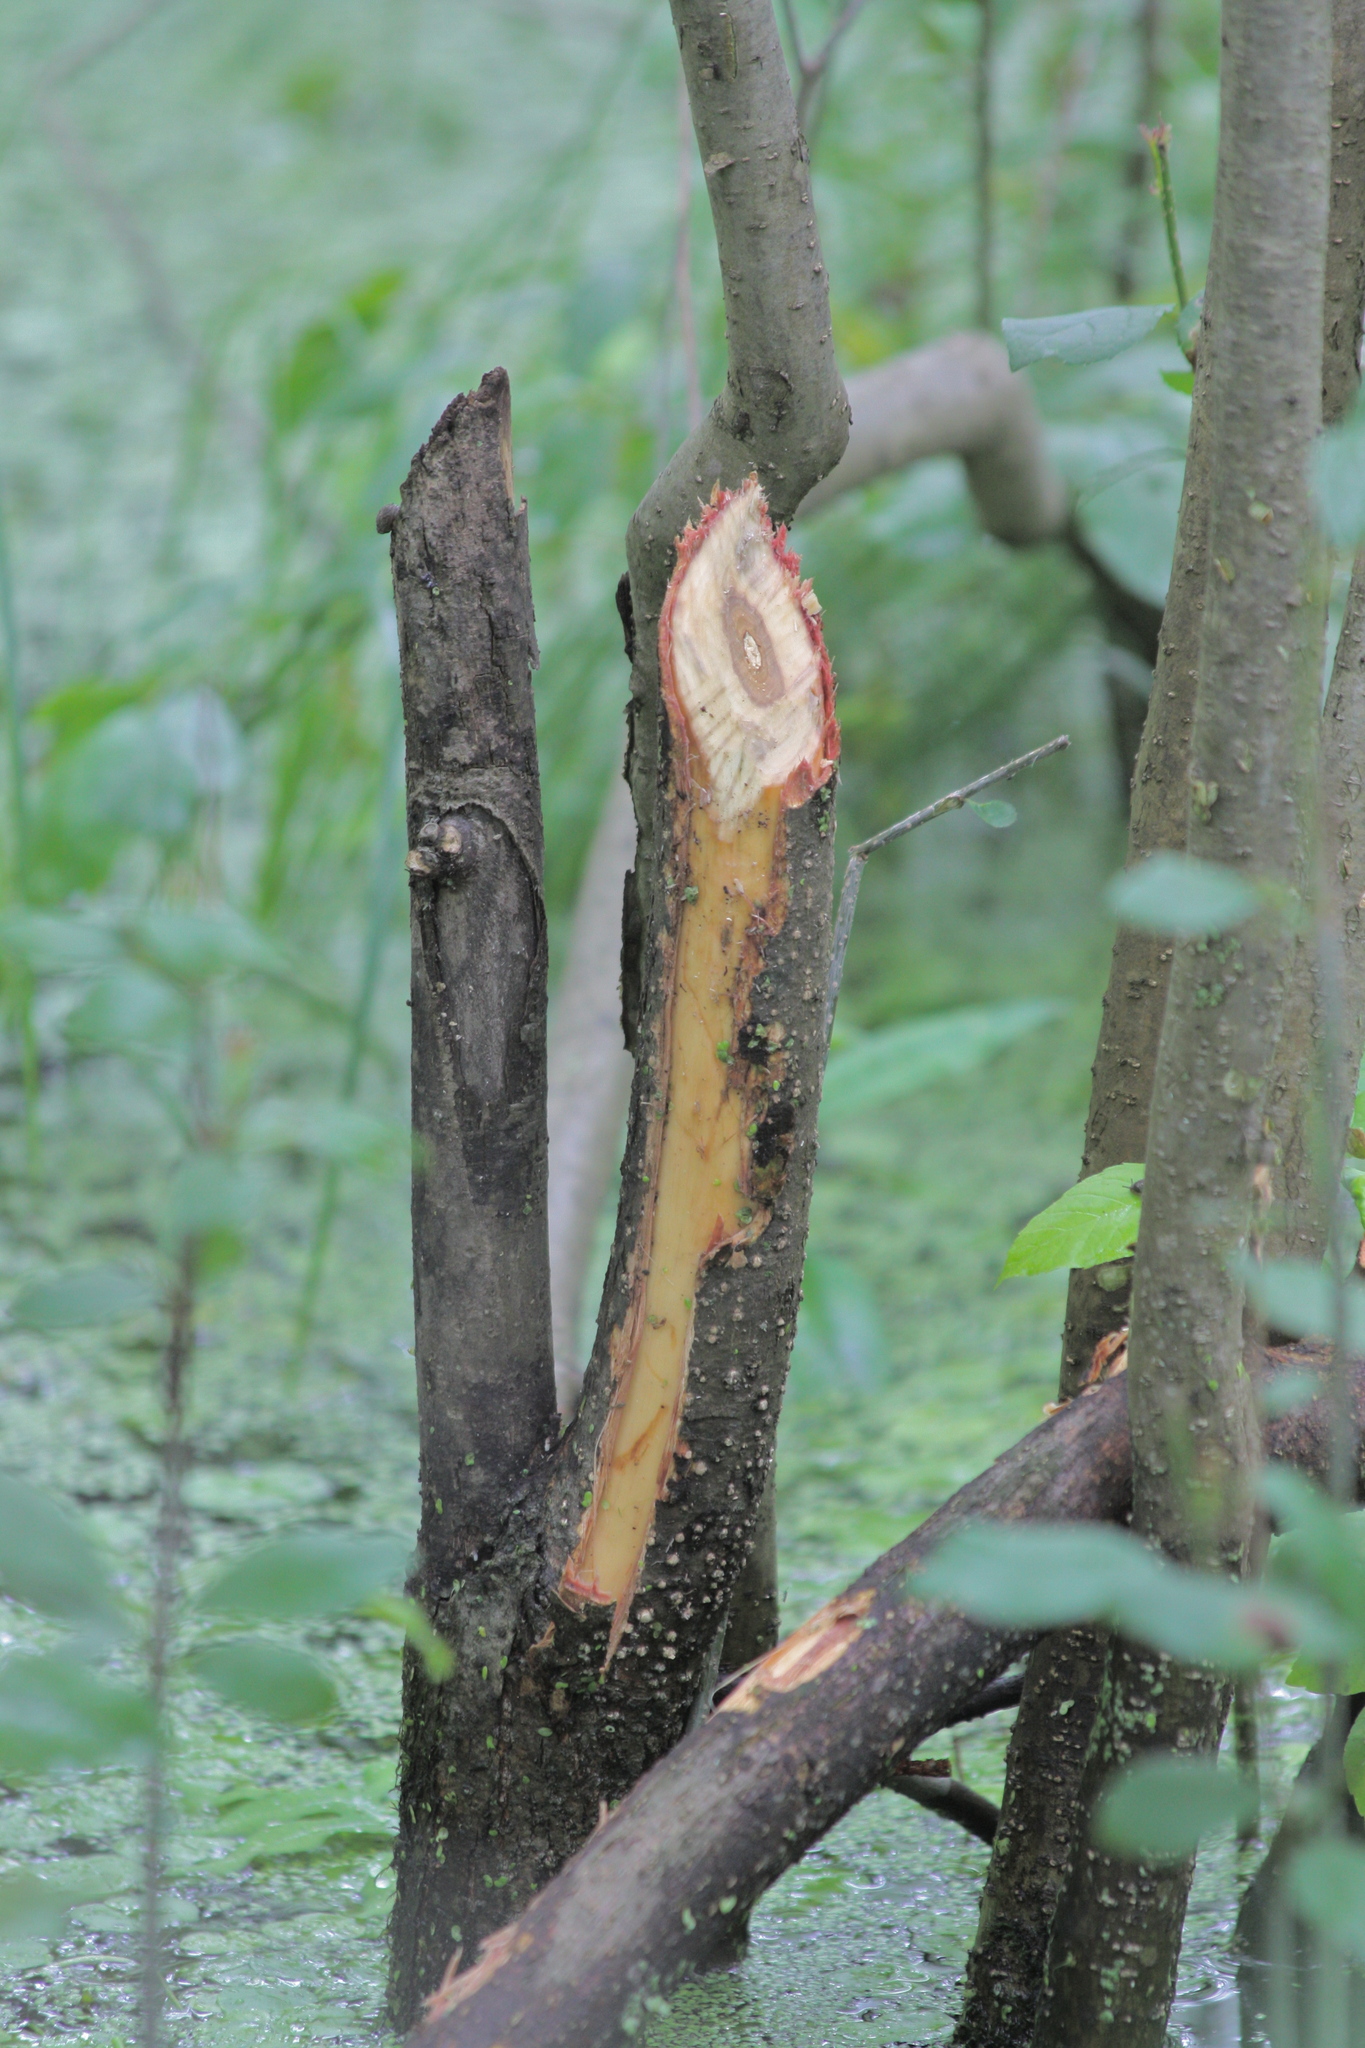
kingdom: Animalia
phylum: Chordata
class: Mammalia
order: Rodentia
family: Castoridae
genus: Castor
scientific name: Castor canadensis
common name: American beaver
